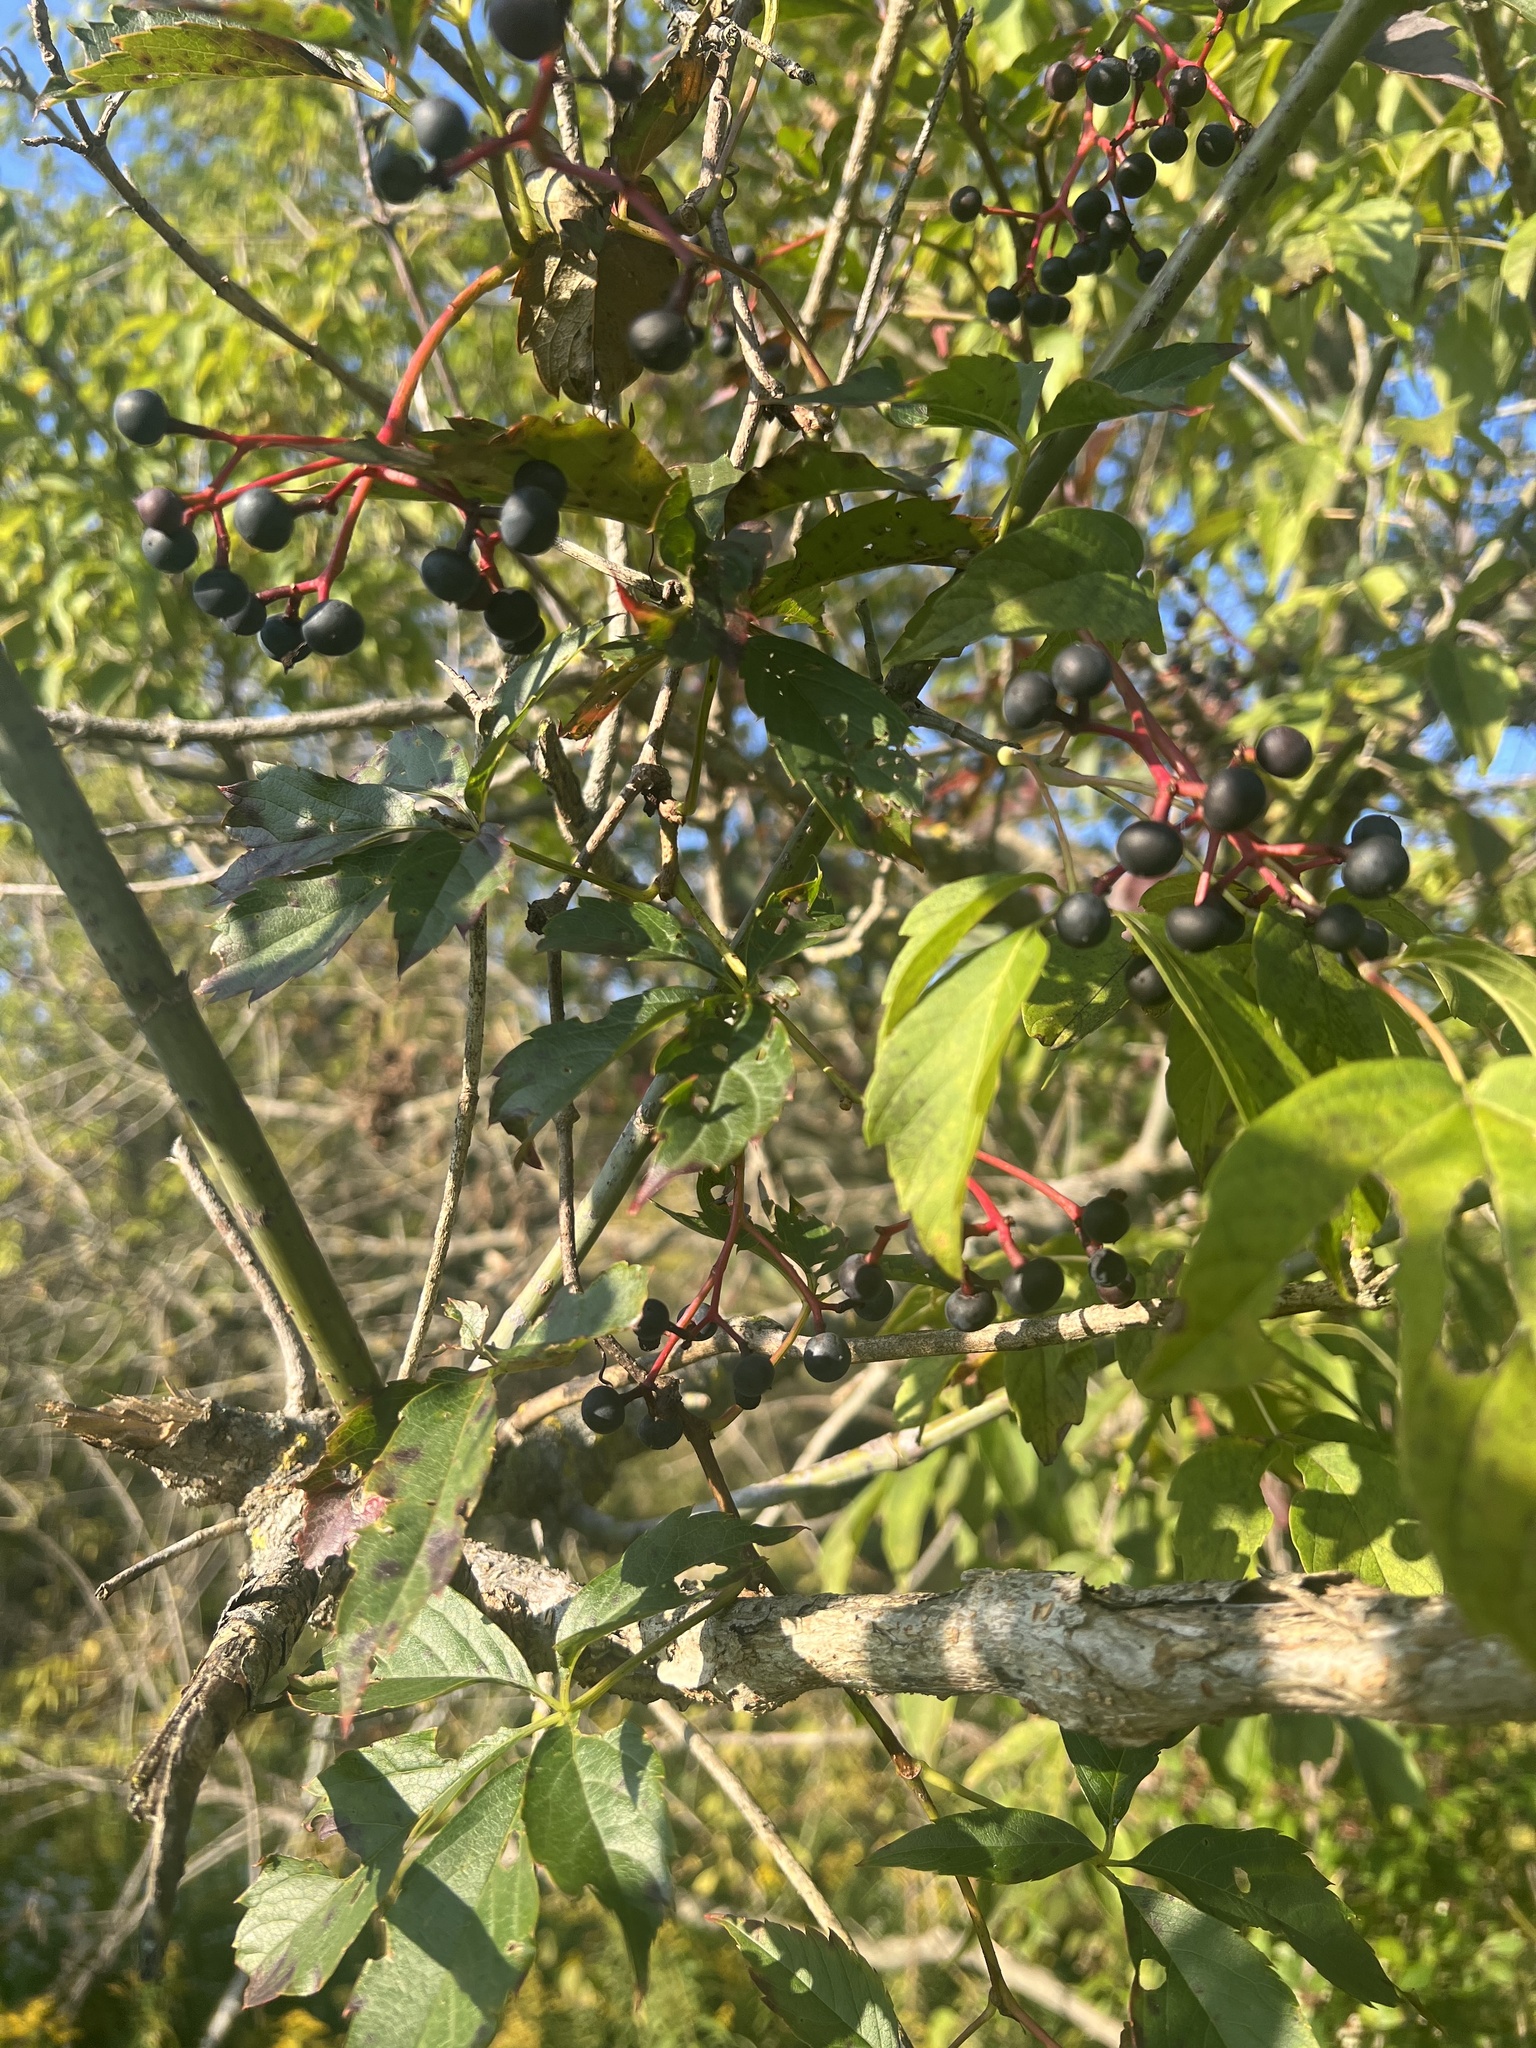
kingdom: Plantae
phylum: Tracheophyta
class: Magnoliopsida
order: Sapindales
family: Sapindaceae
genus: Acer
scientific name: Acer negundo
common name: Ashleaf maple
